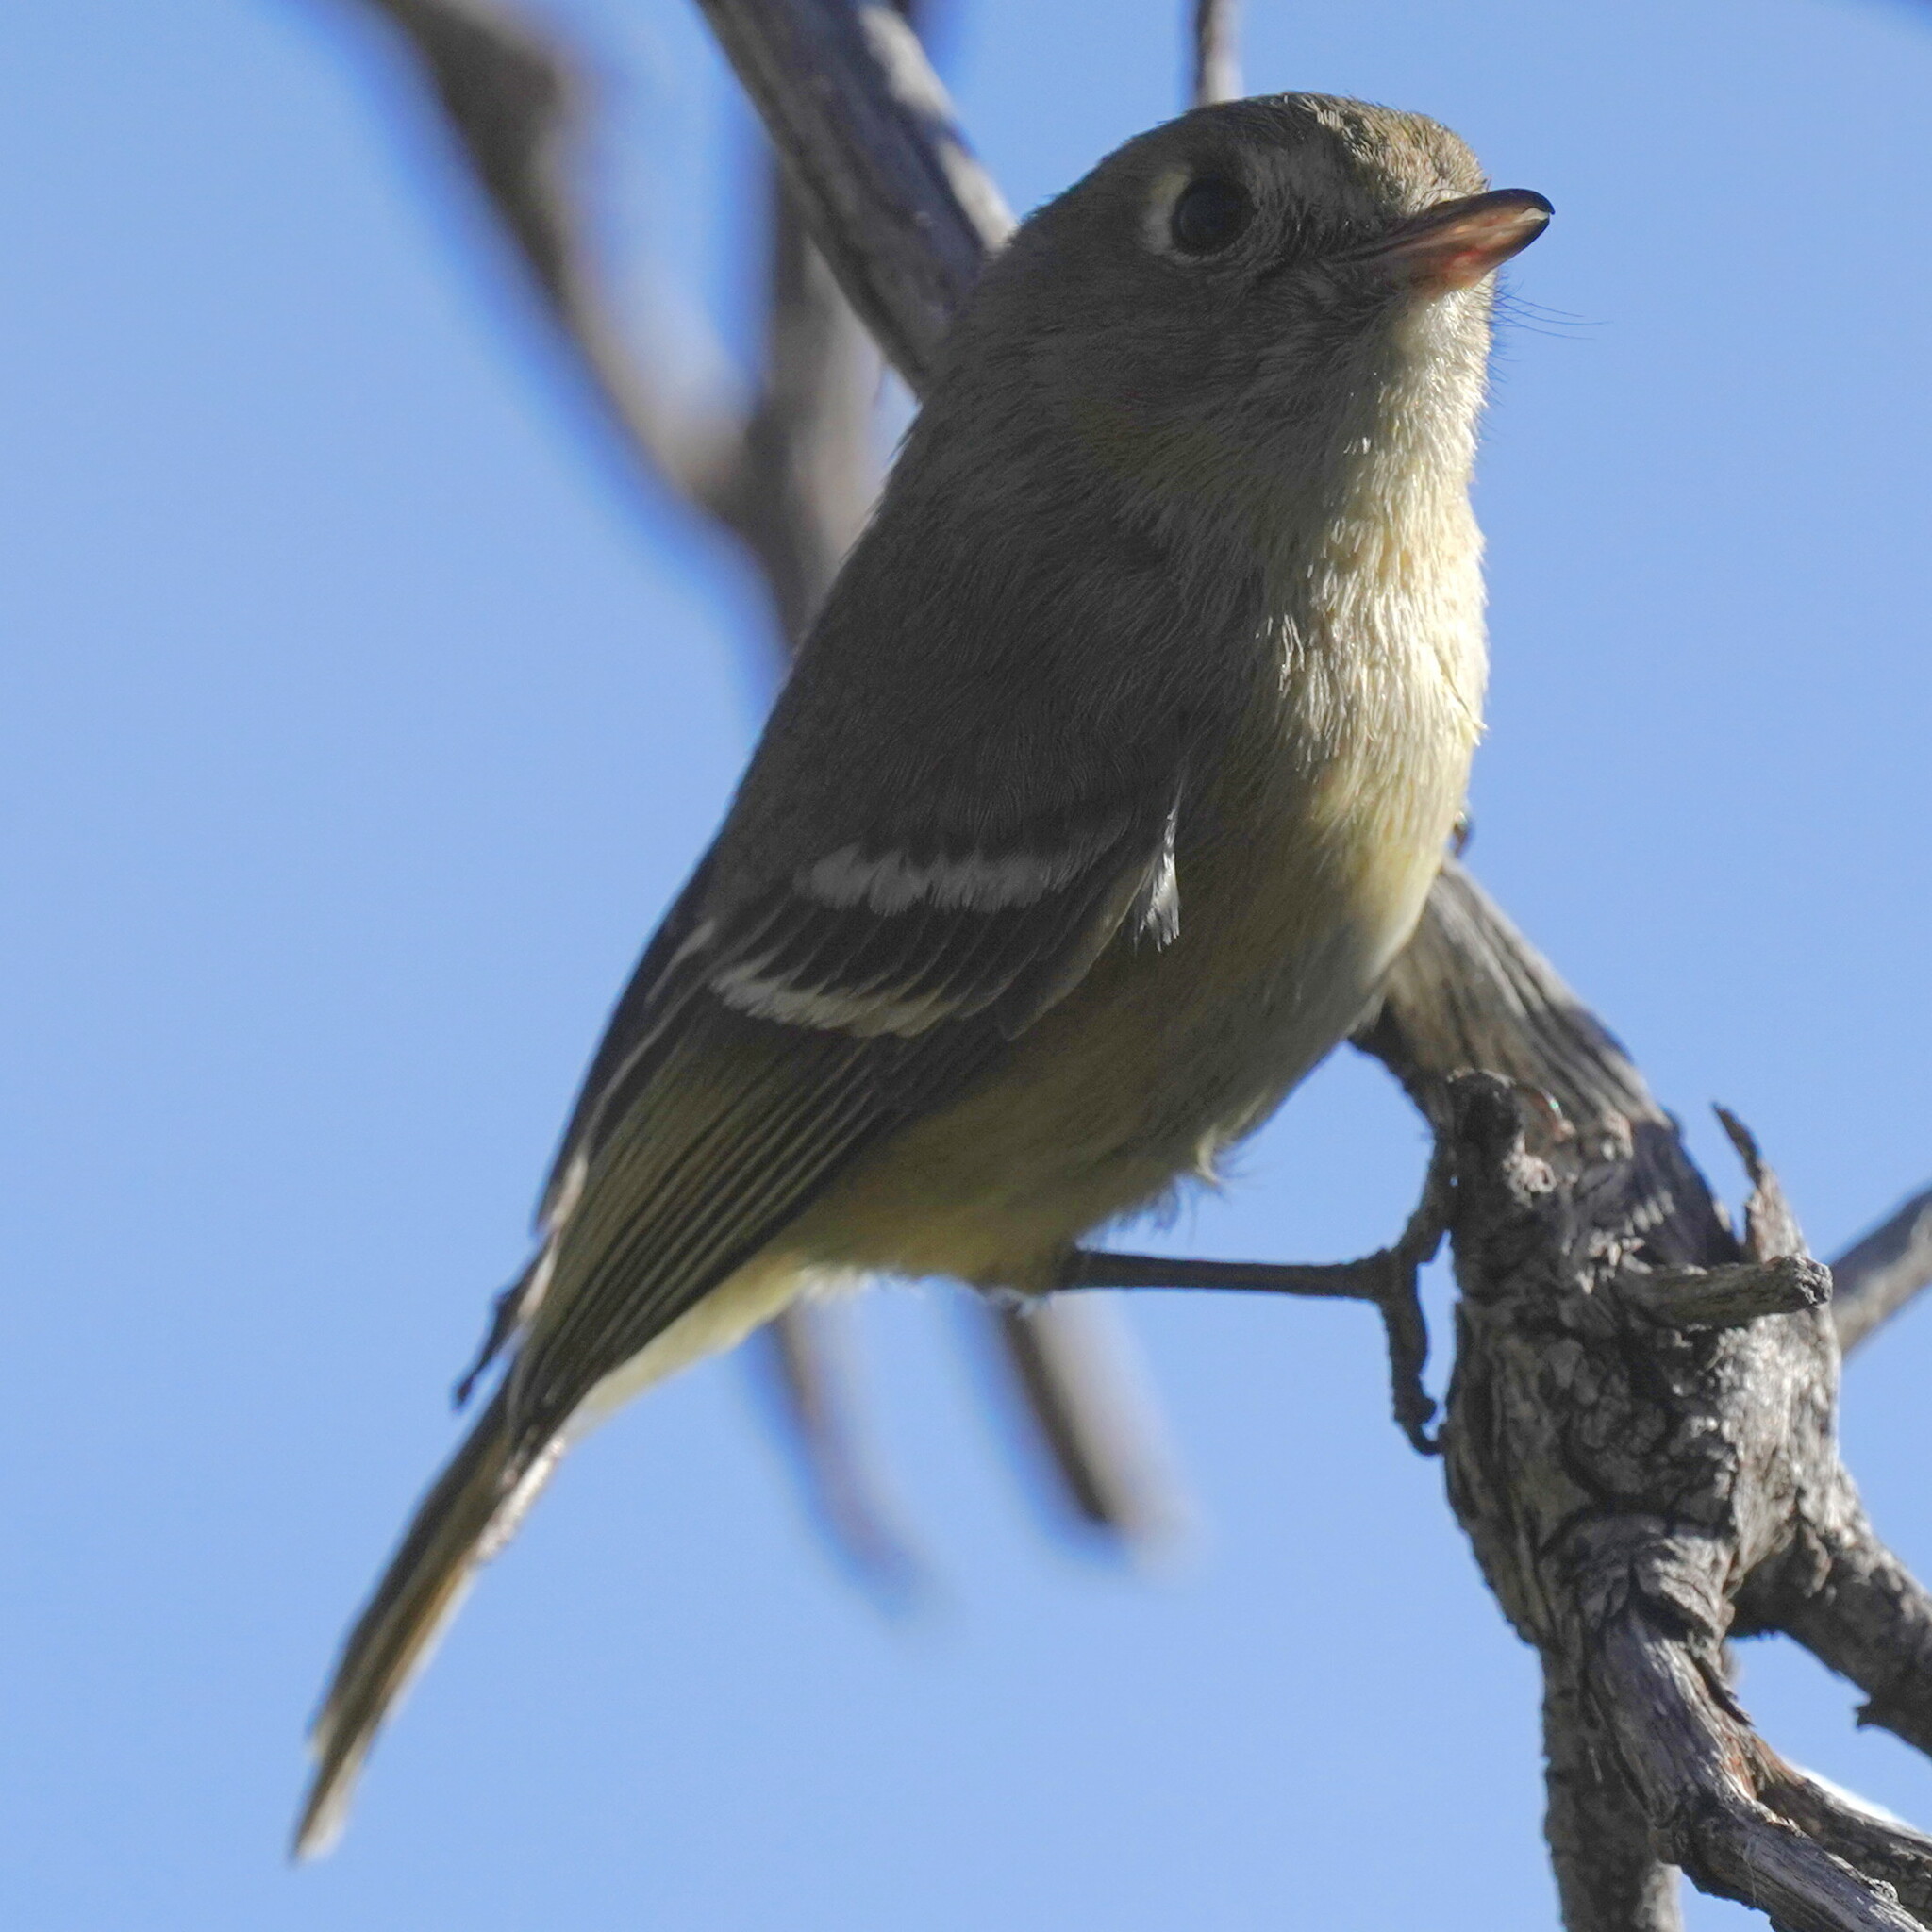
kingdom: Animalia
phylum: Chordata
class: Aves
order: Passeriformes
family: Vireonidae
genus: Vireo
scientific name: Vireo huttoni
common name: Hutton's vireo
